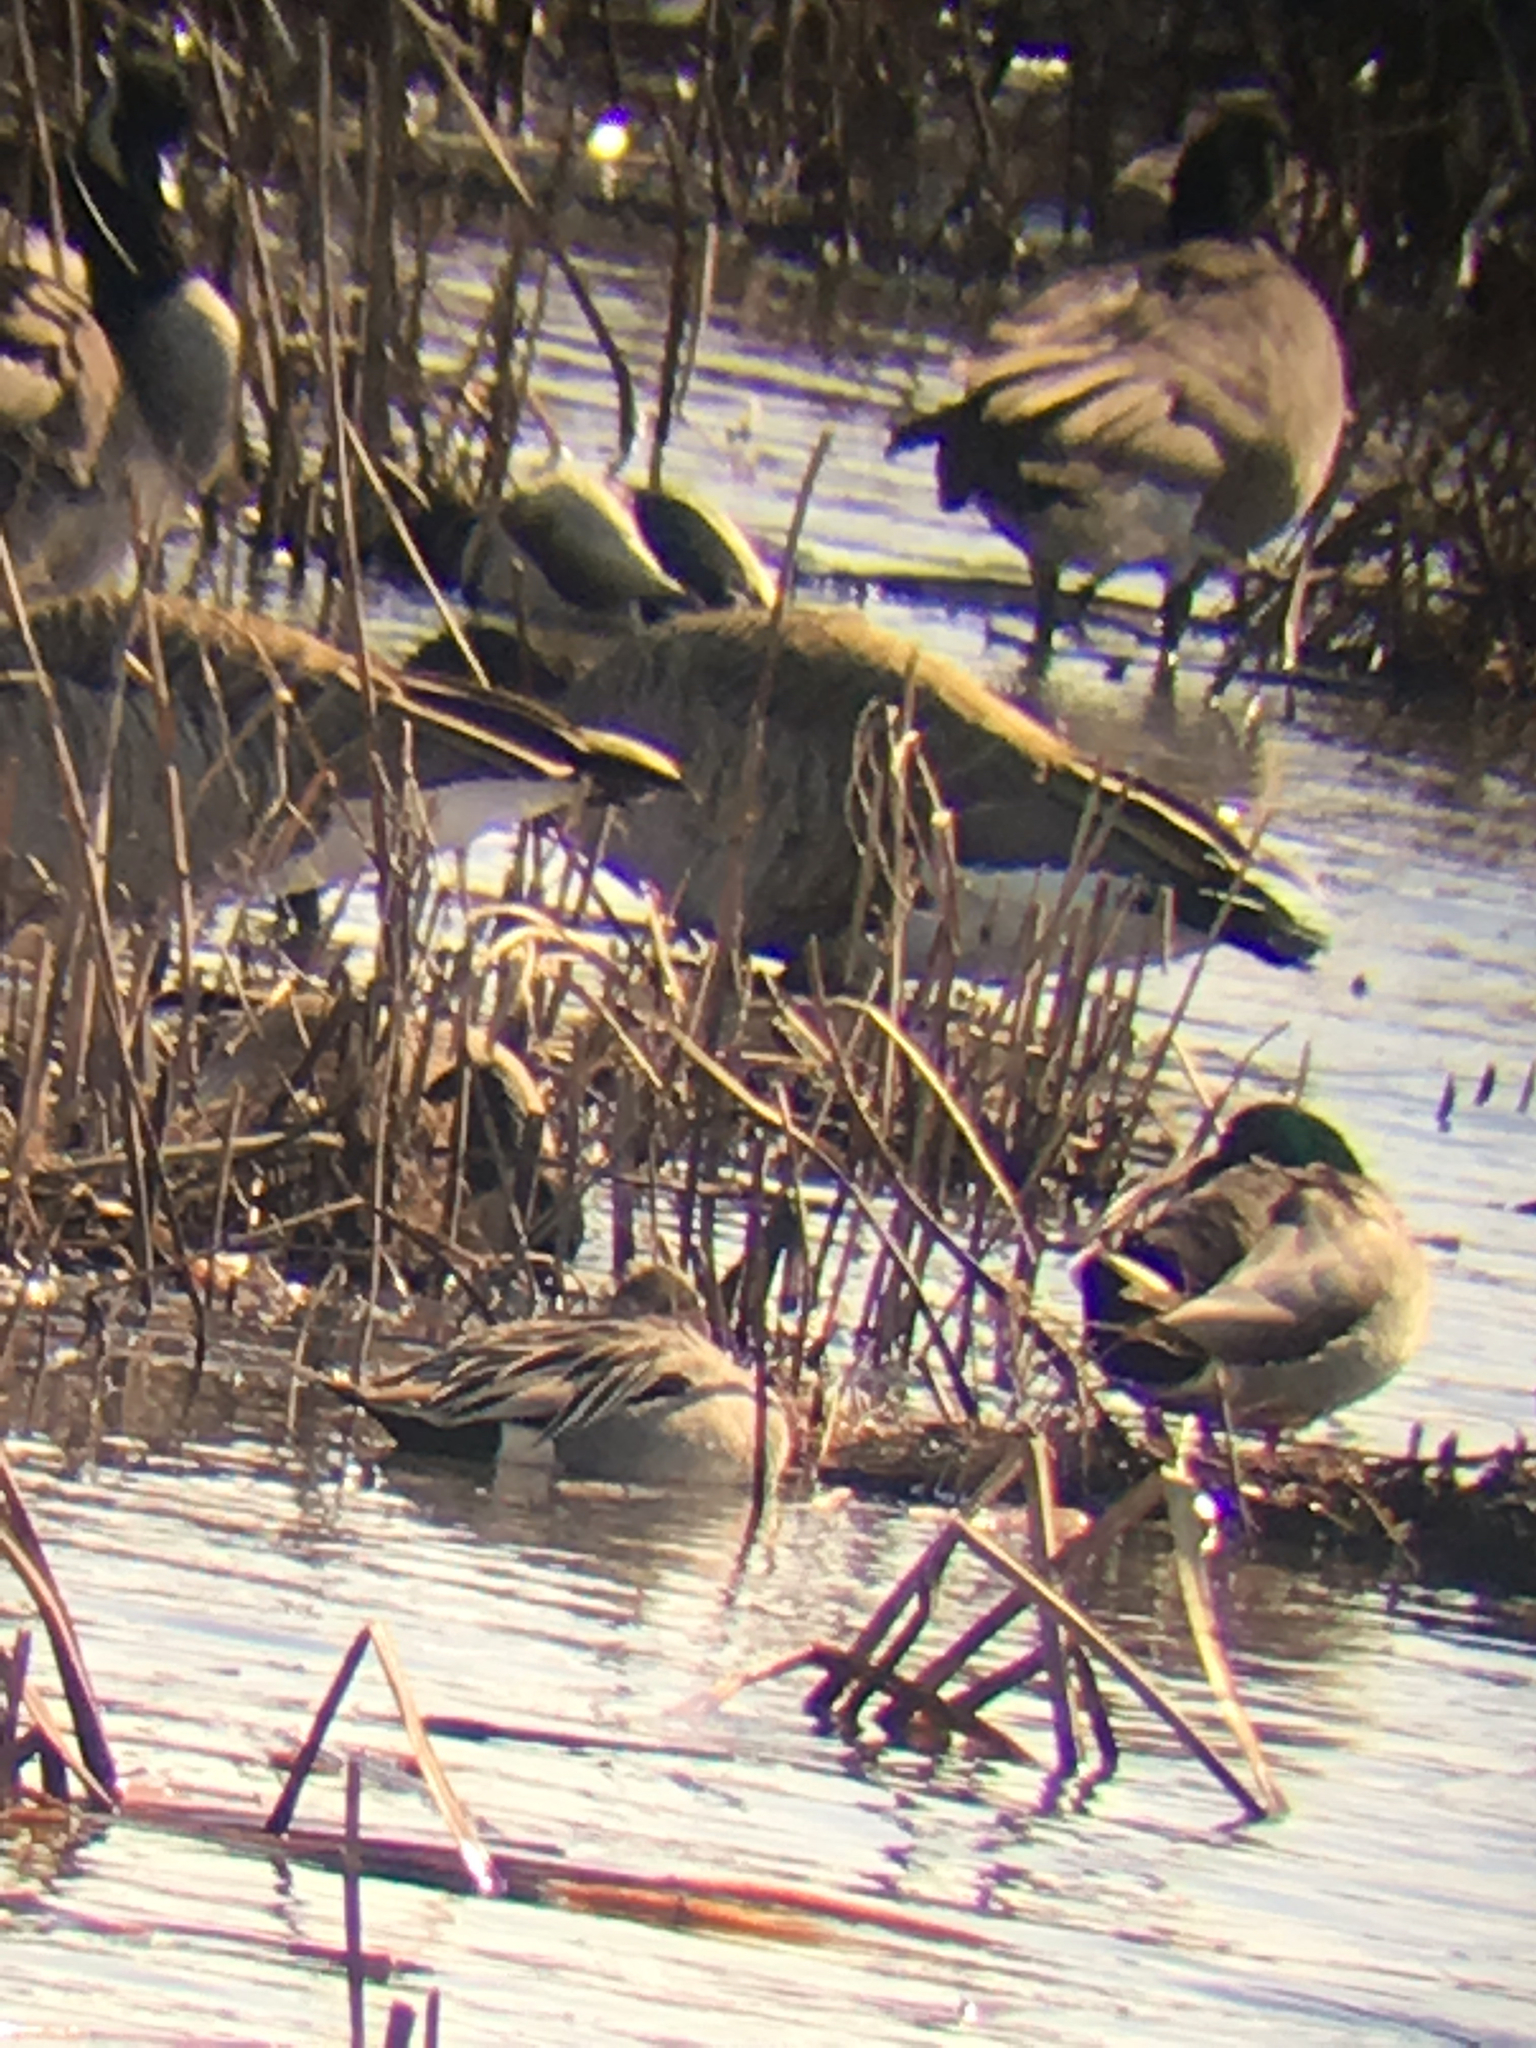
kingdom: Animalia
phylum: Chordata
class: Aves
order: Anseriformes
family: Anatidae
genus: Anas
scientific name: Anas acuta
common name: Northern pintail
